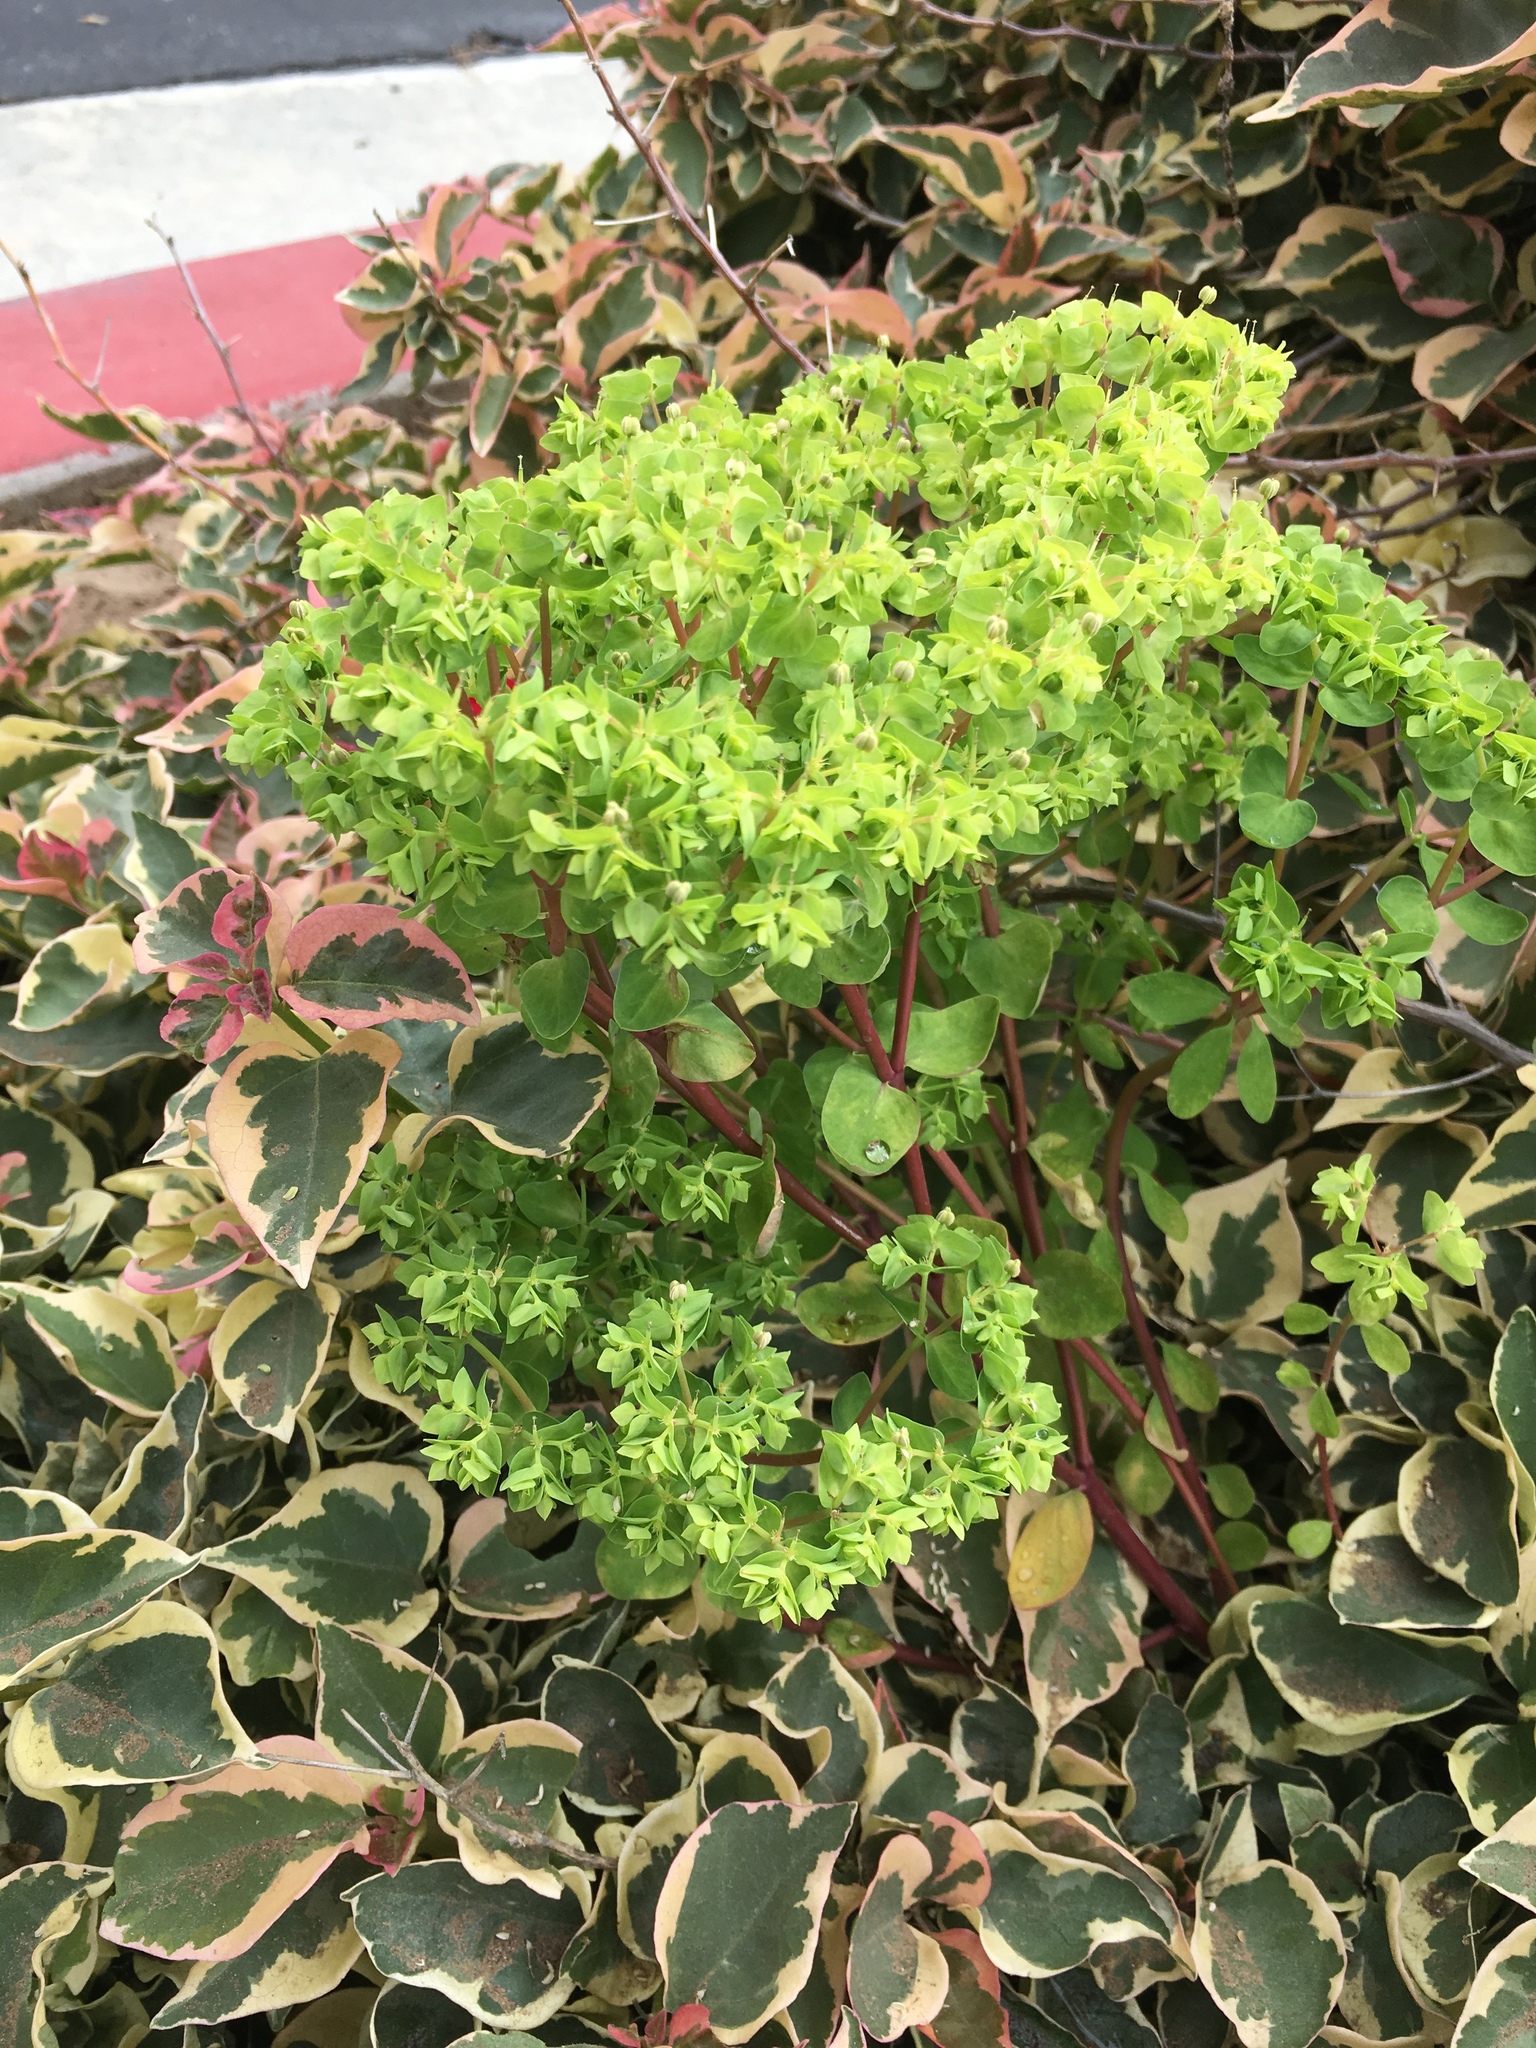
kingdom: Plantae
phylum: Tracheophyta
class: Magnoliopsida
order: Malpighiales
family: Euphorbiaceae
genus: Euphorbia
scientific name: Euphorbia peplus
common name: Petty spurge
